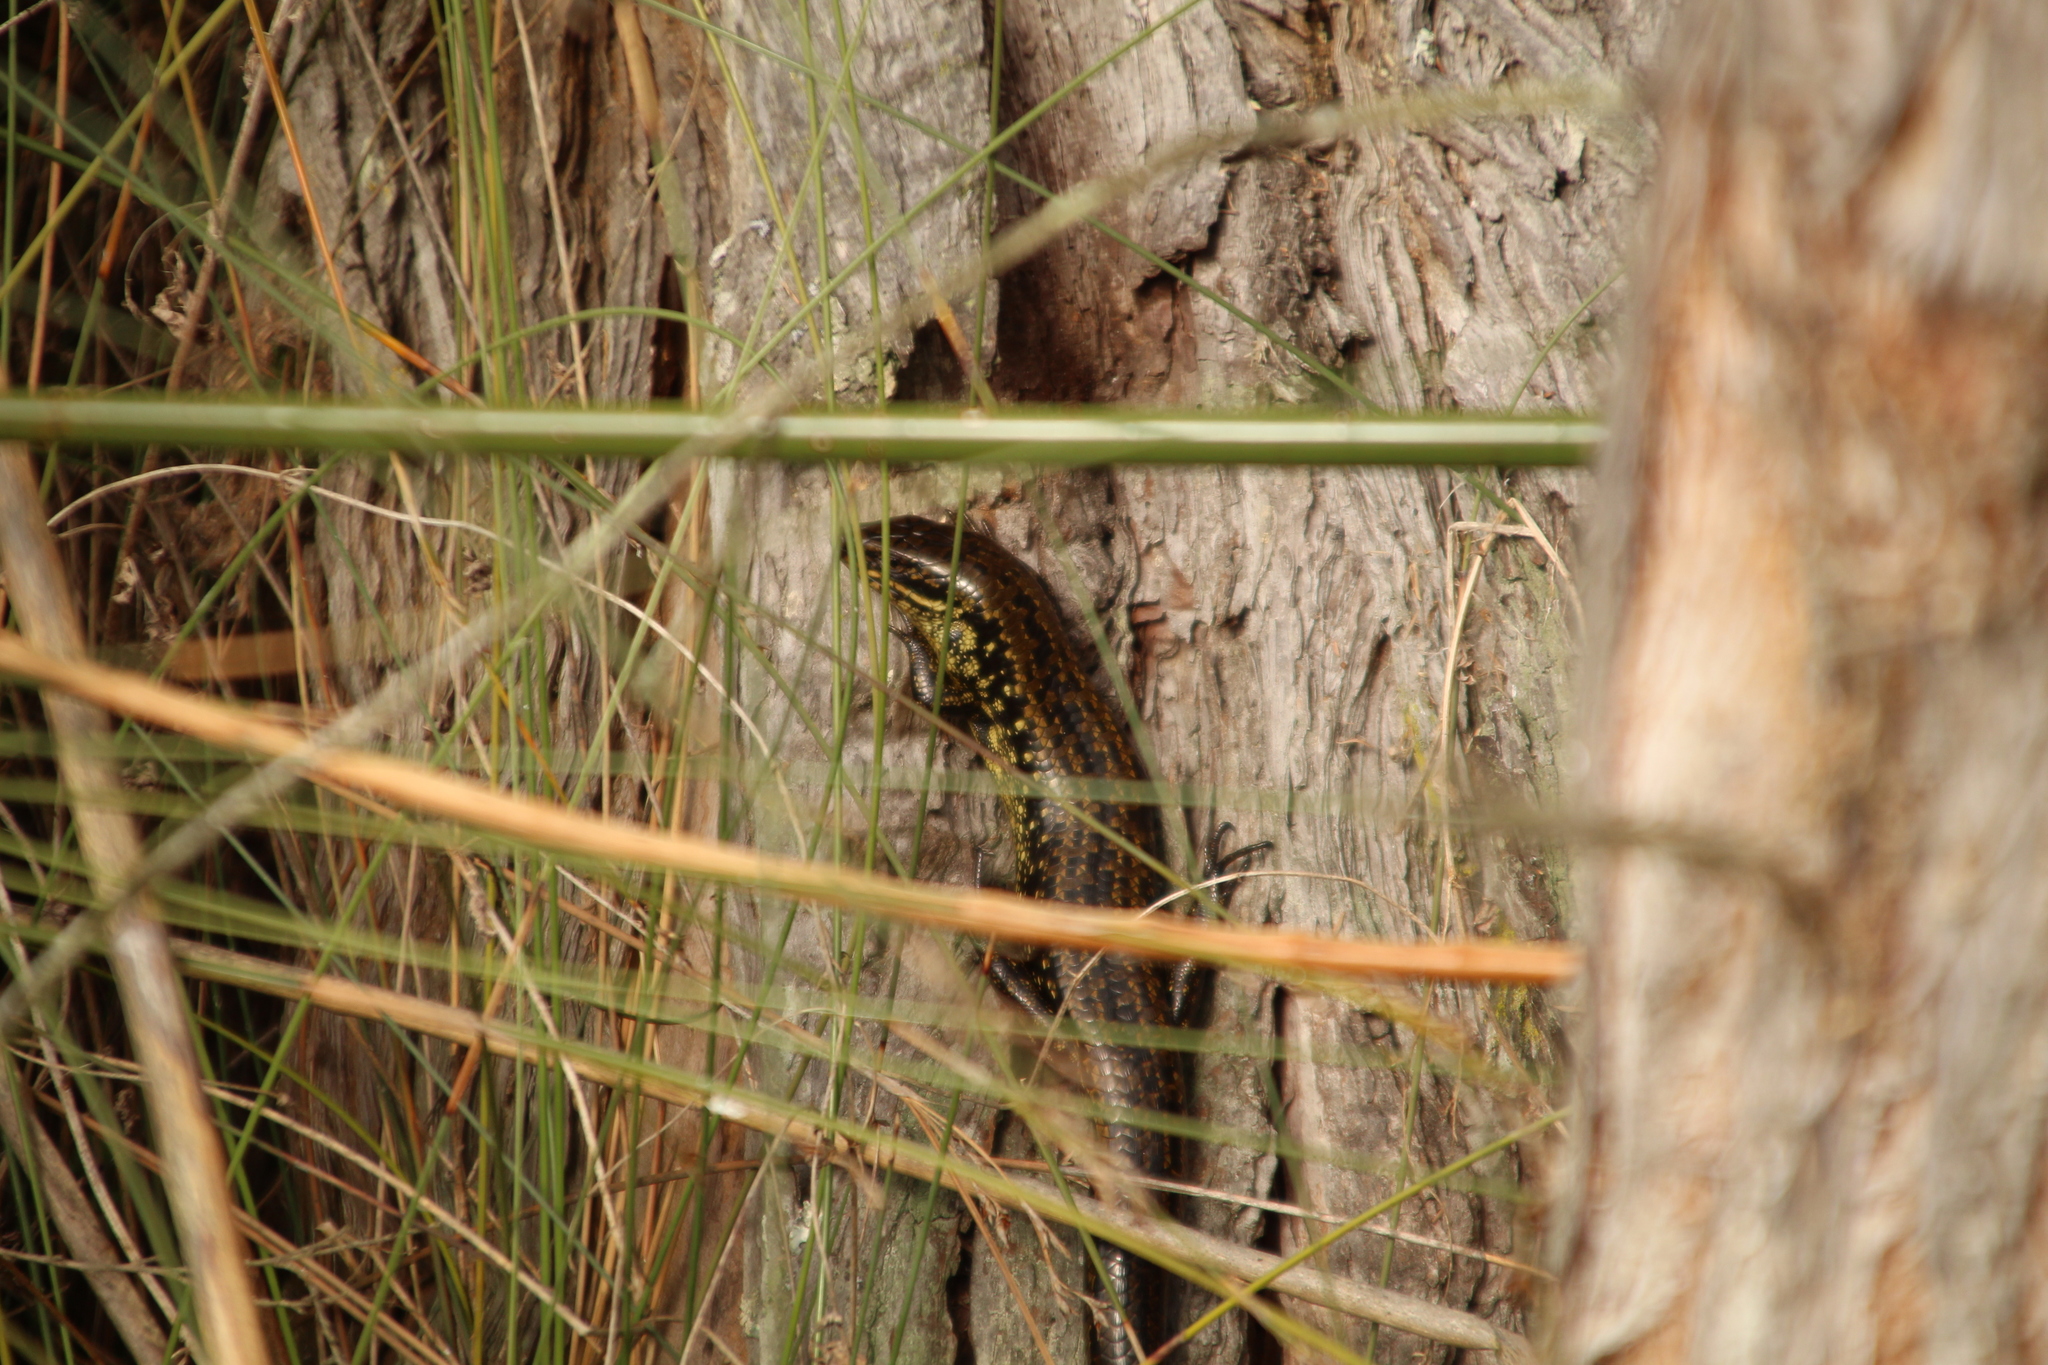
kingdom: Animalia
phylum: Chordata
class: Squamata
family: Scincidae
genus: Lissolepis
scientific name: Lissolepis luctuosa
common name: Western glossy swamp skink
